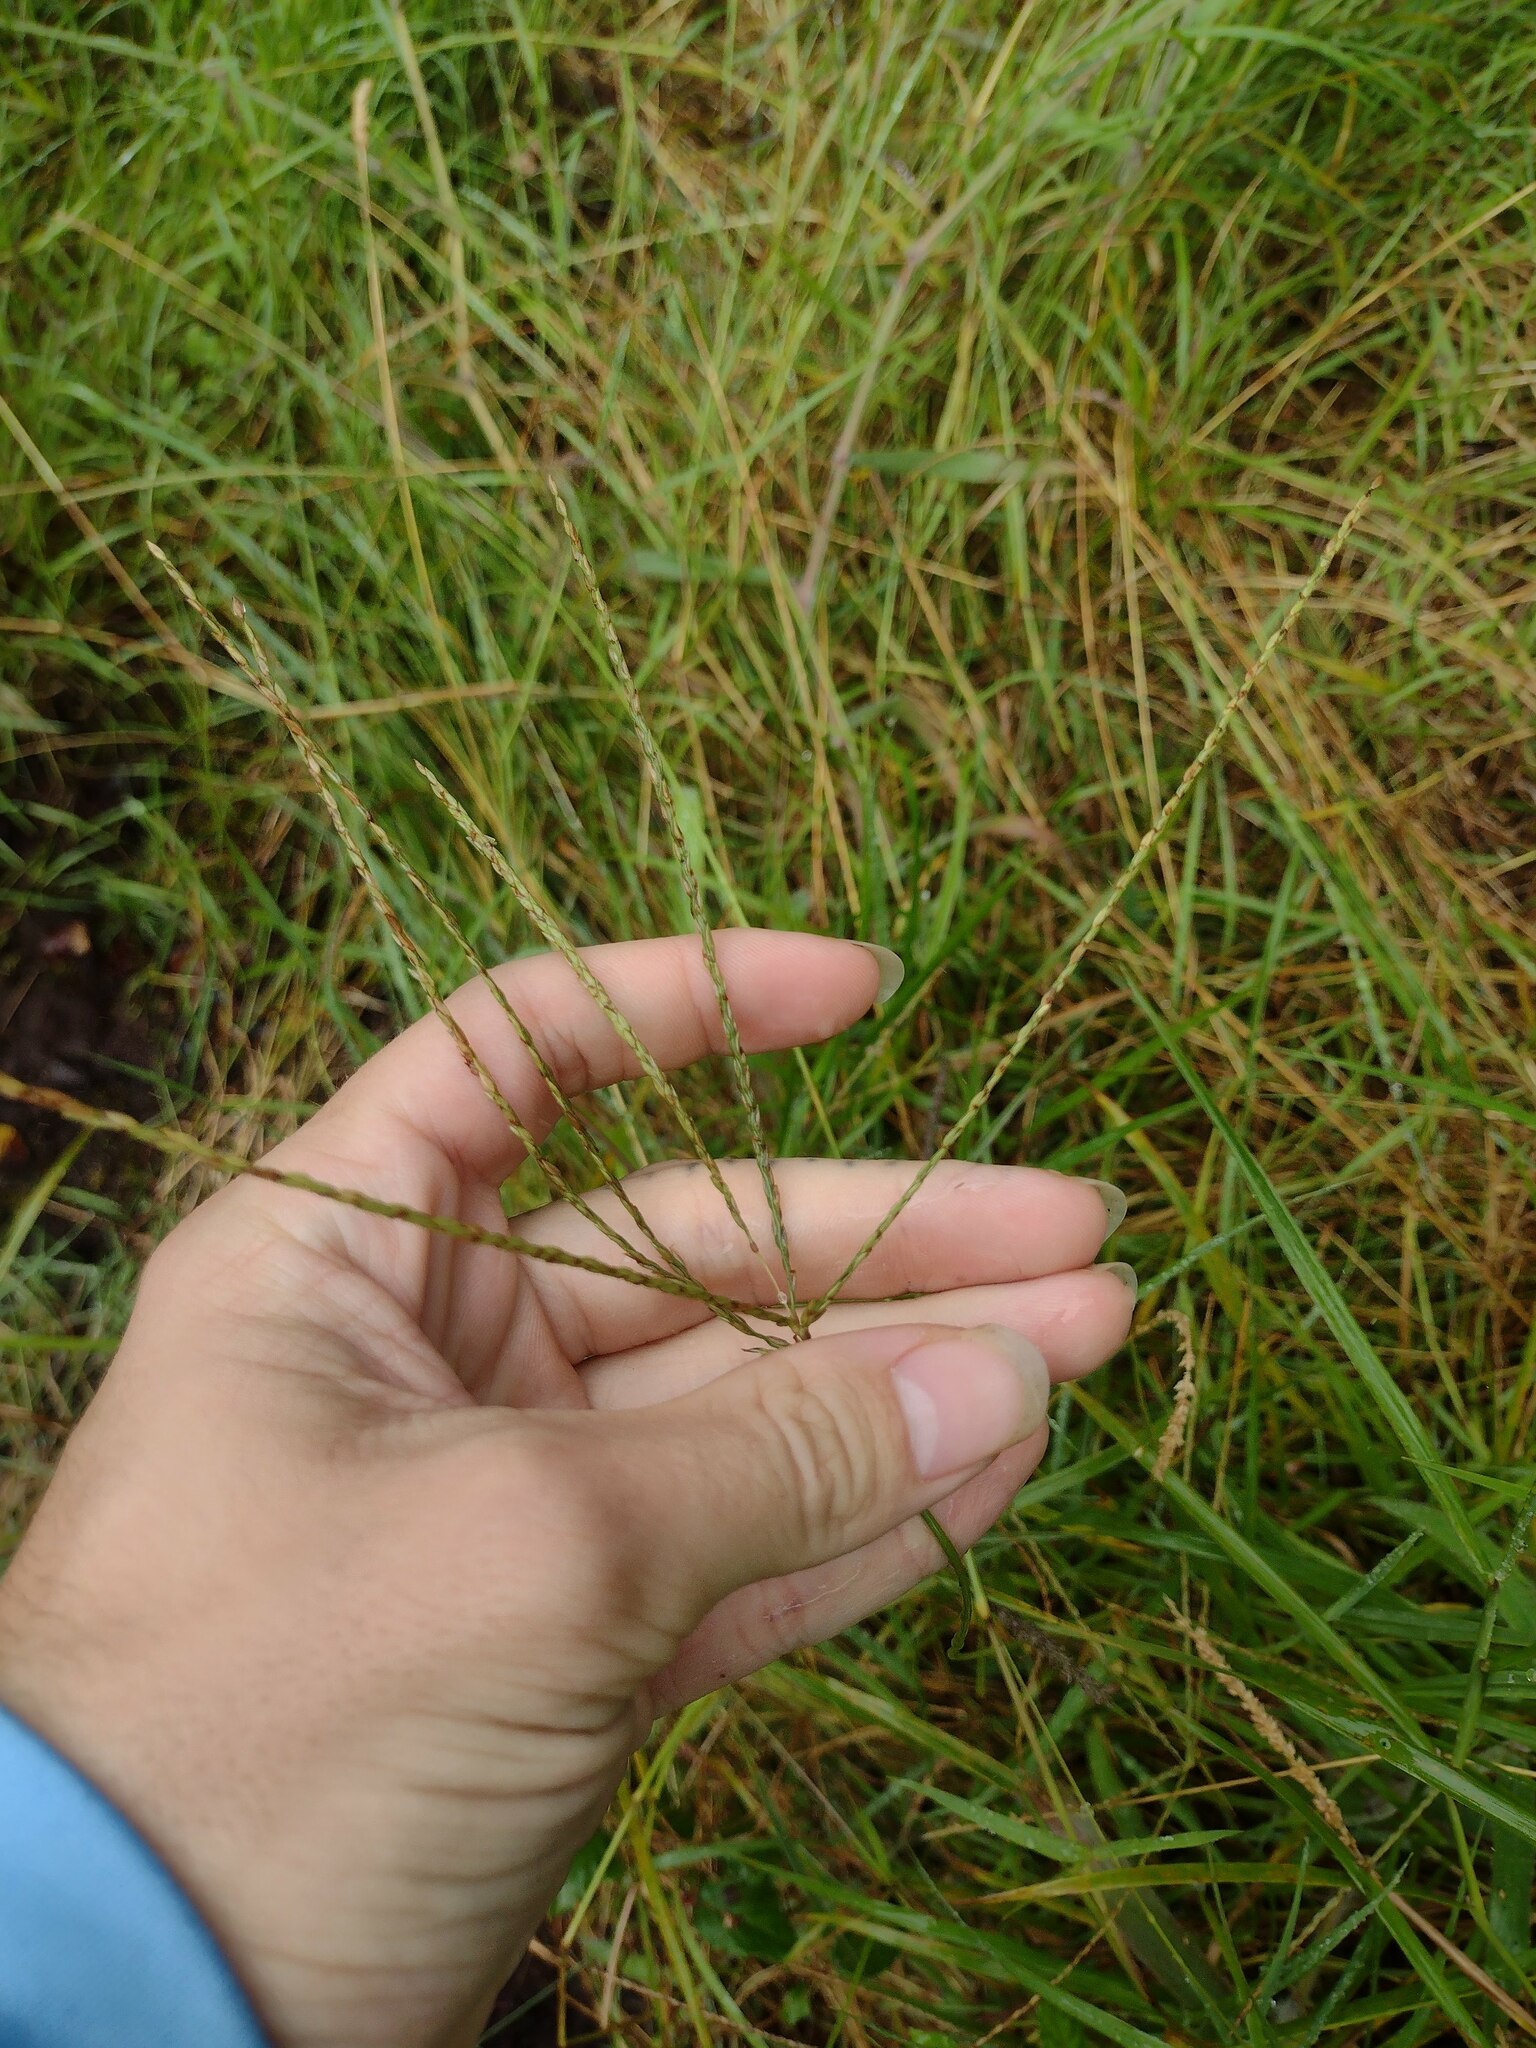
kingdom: Plantae
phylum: Tracheophyta
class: Liliopsida
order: Poales
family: Poaceae
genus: Digitaria
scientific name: Digitaria violascens
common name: Violet crabgrass
